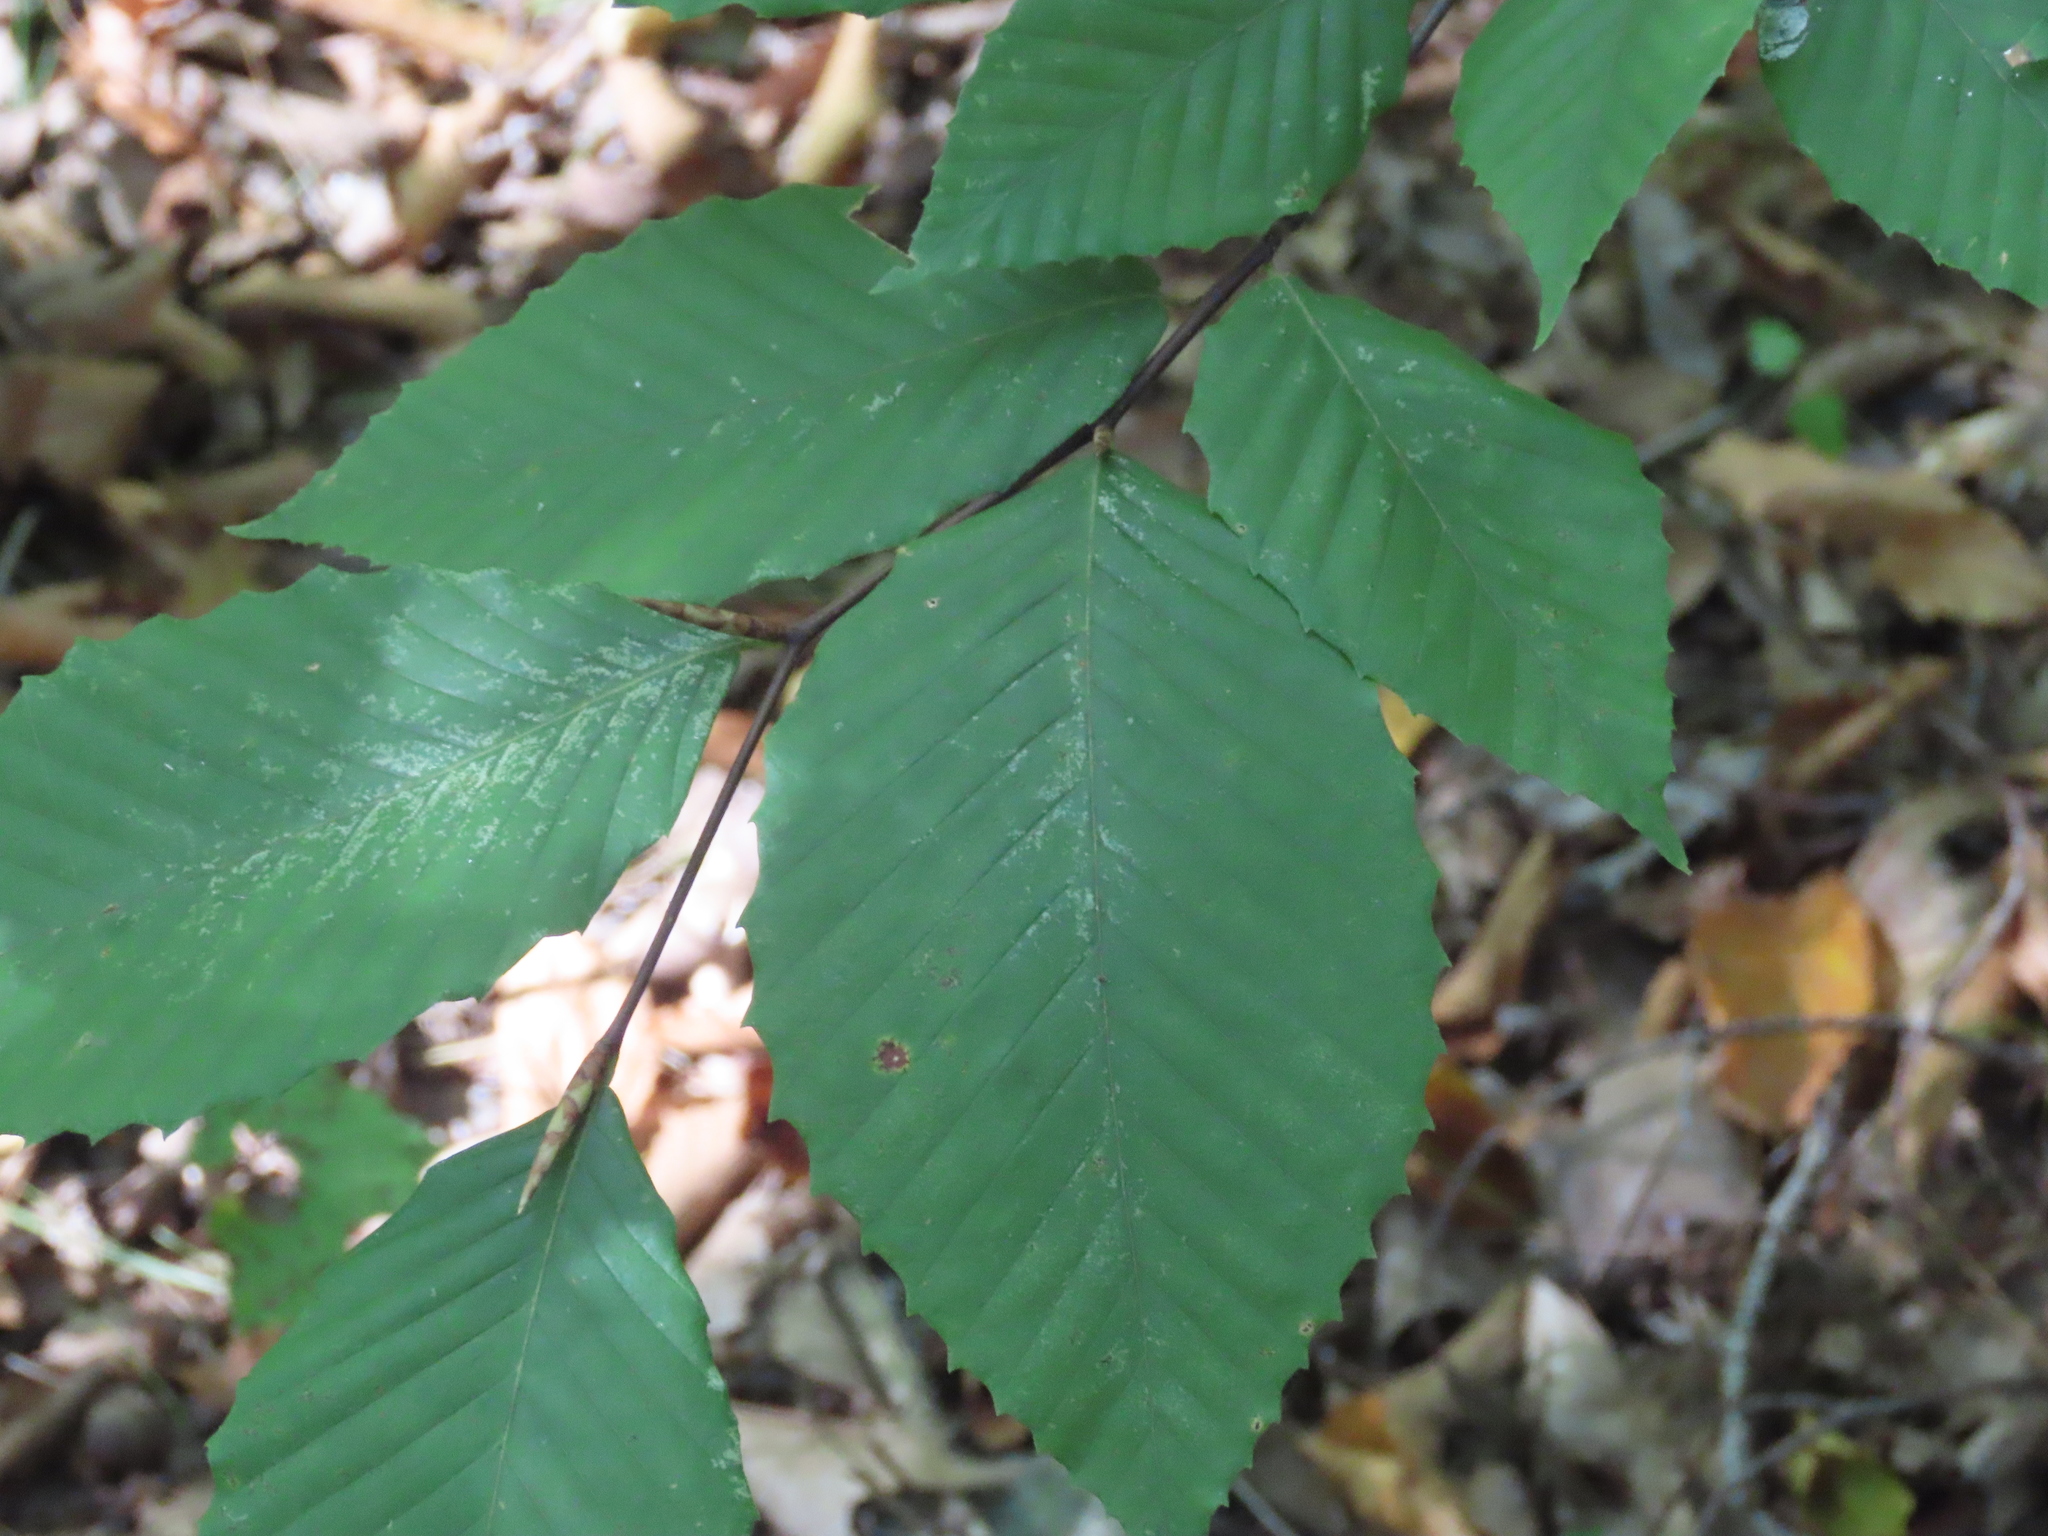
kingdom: Plantae
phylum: Tracheophyta
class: Magnoliopsida
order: Fagales
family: Fagaceae
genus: Fagus
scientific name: Fagus grandifolia
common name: American beech
